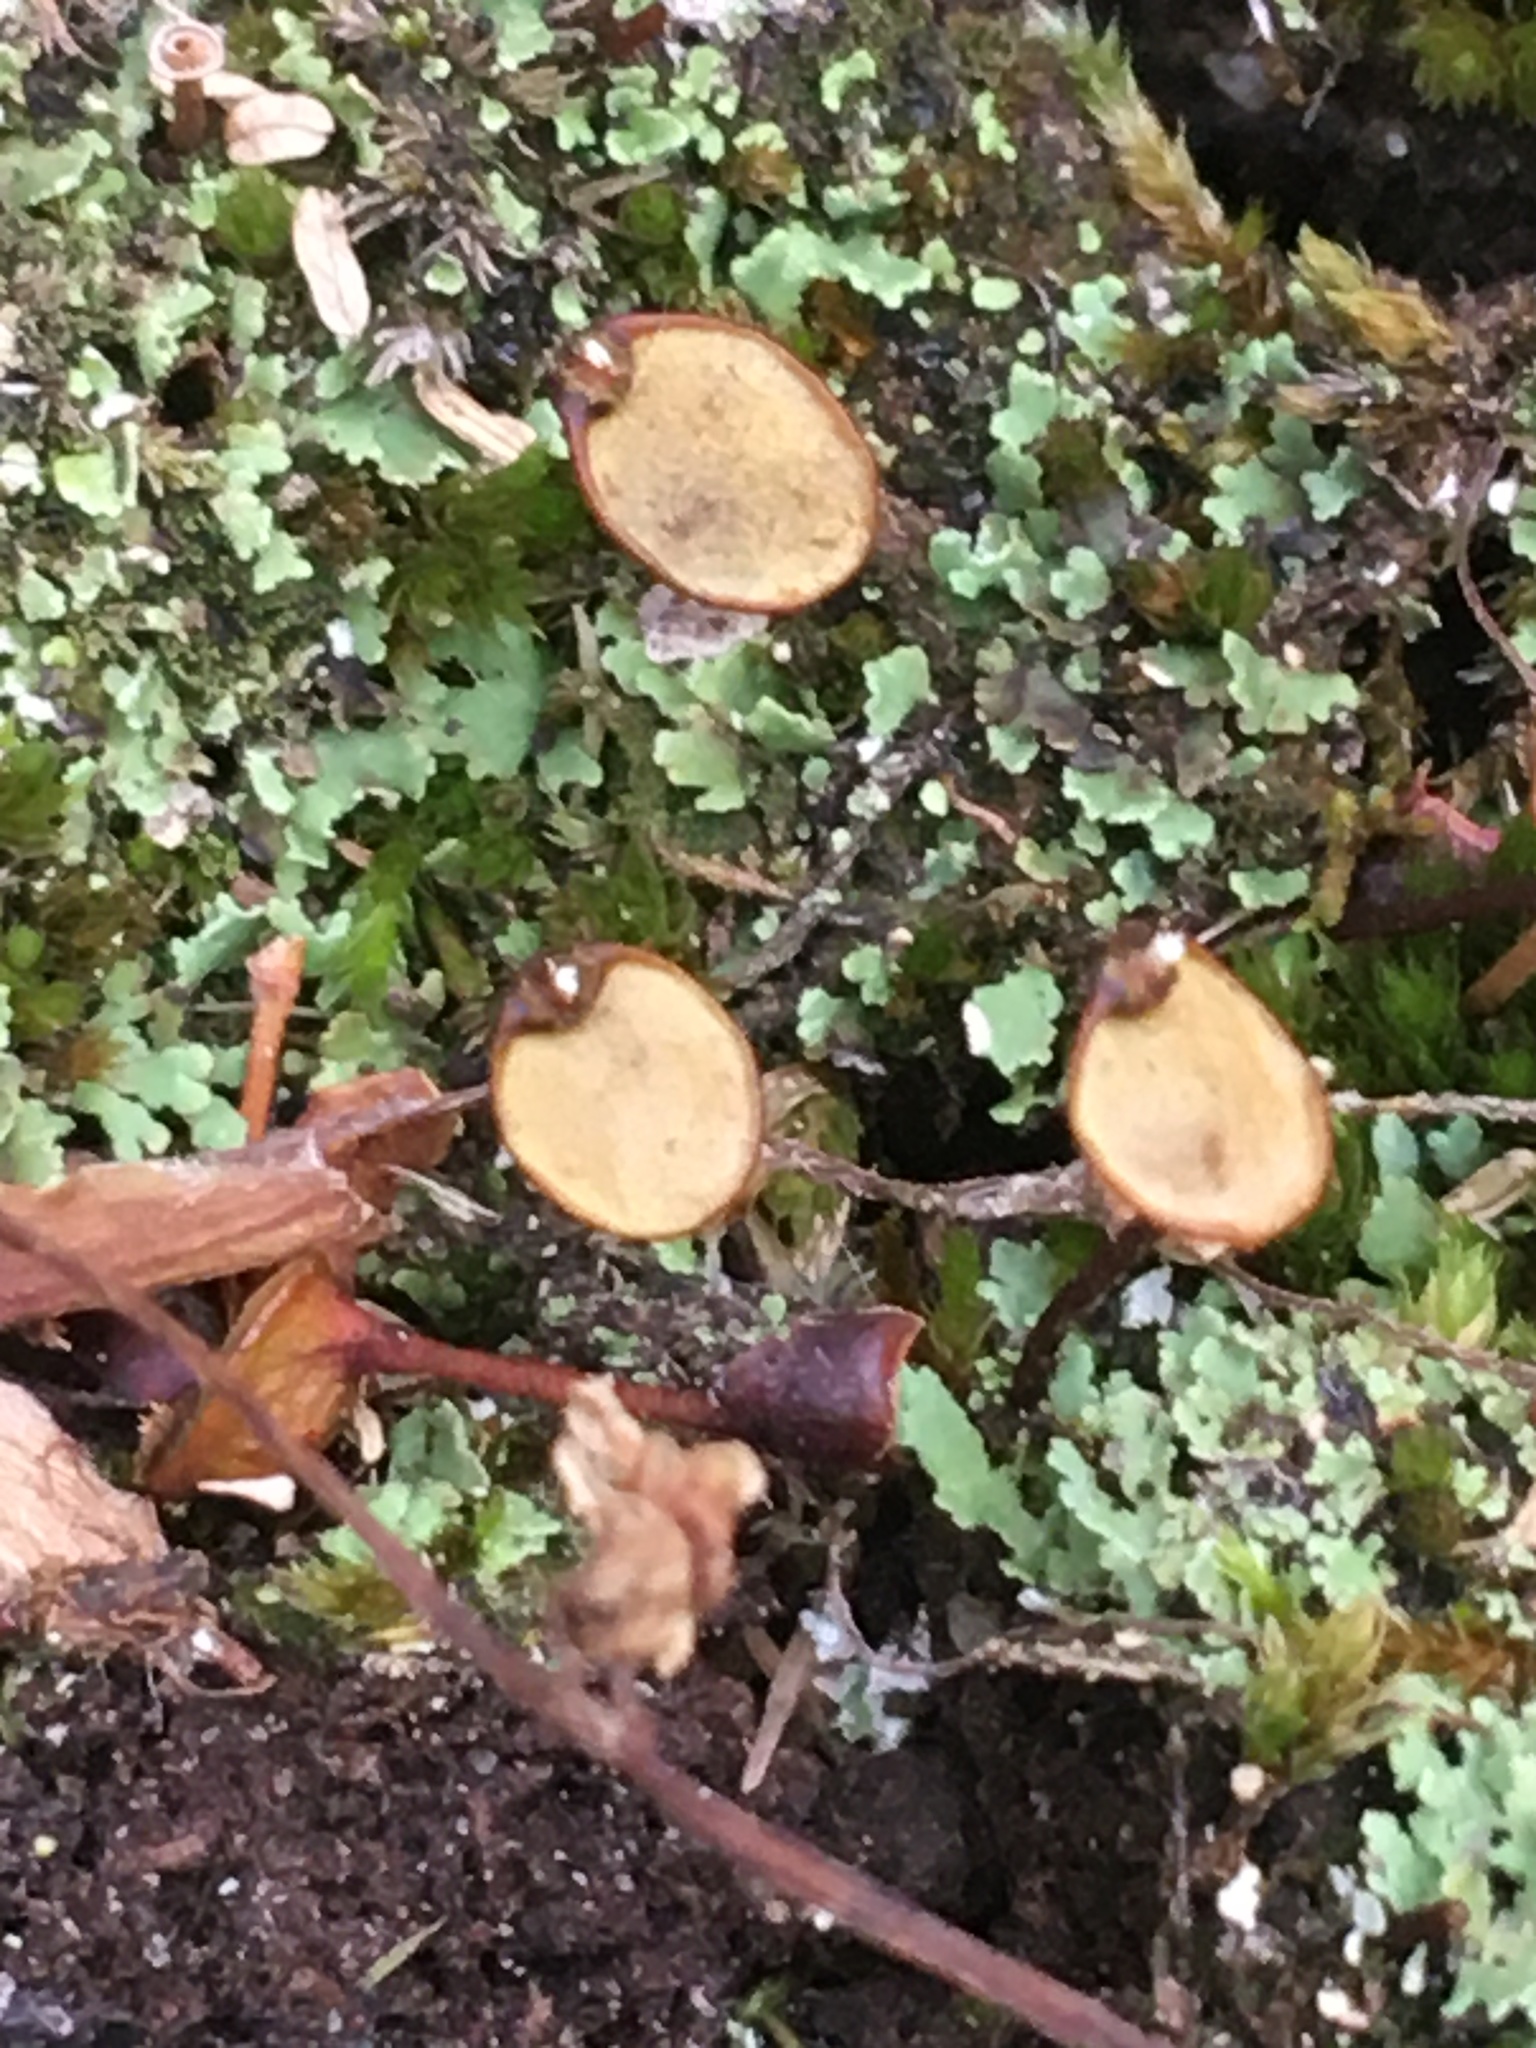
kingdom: Plantae
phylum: Bryophyta
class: Bryopsida
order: Buxbaumiales
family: Buxbaumiaceae
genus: Buxbaumia
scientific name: Buxbaumia aphylla
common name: Brown shield-moss
